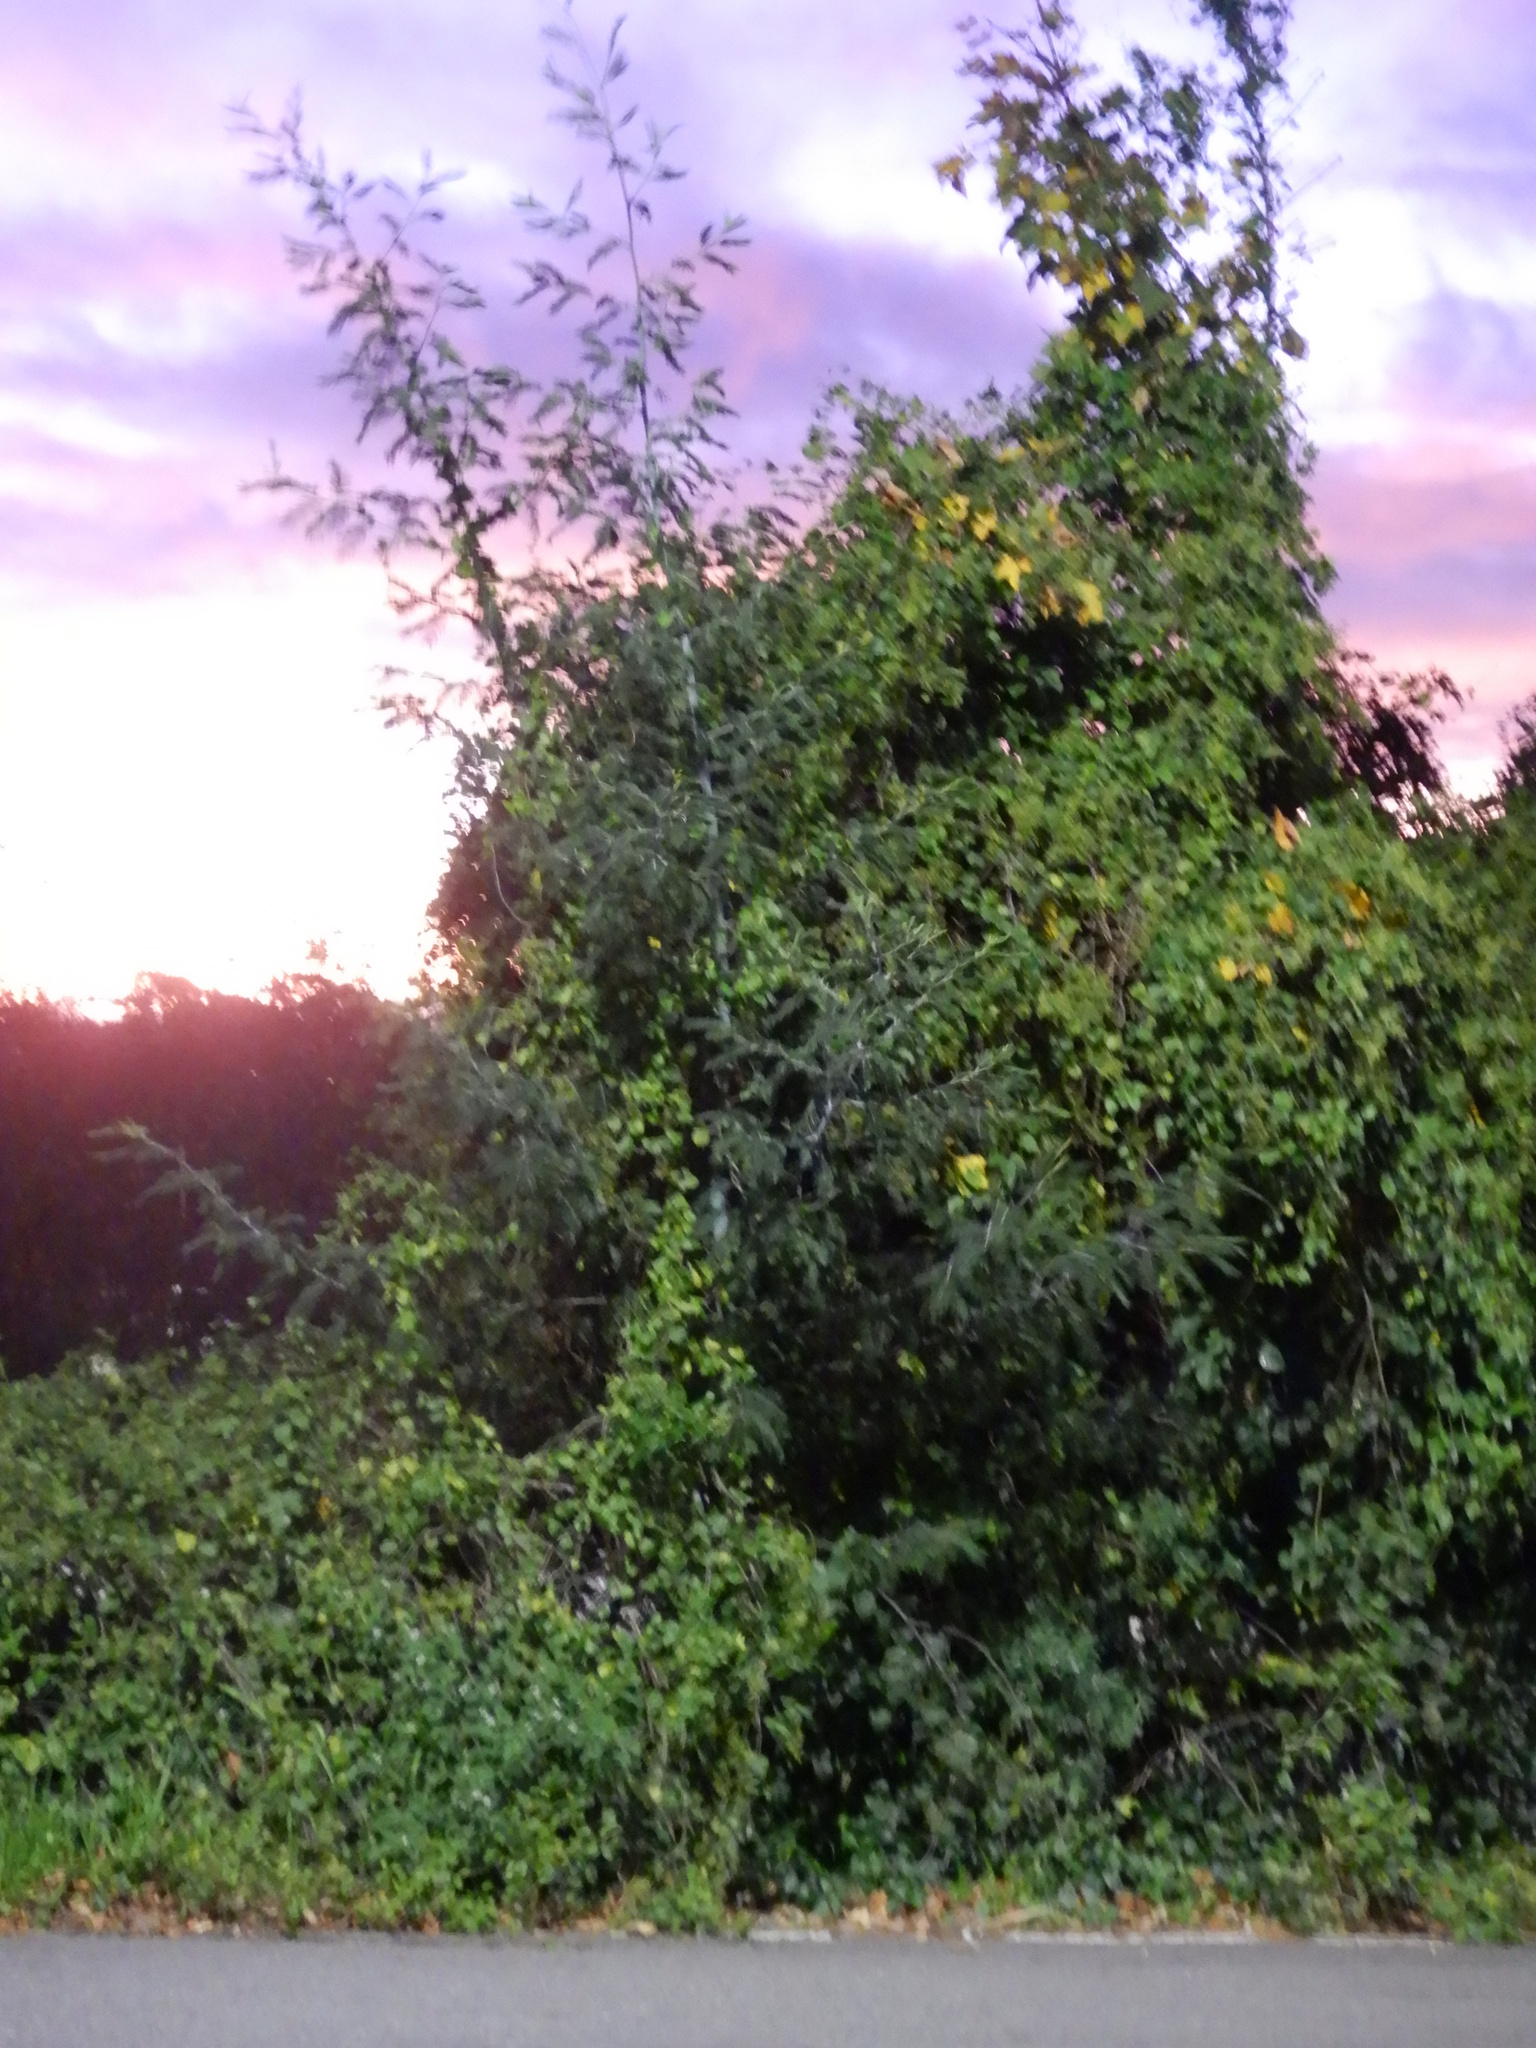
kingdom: Plantae
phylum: Tracheophyta
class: Magnoliopsida
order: Fabales
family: Fabaceae
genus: Acacia
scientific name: Acacia dealbata
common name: Silver wattle
